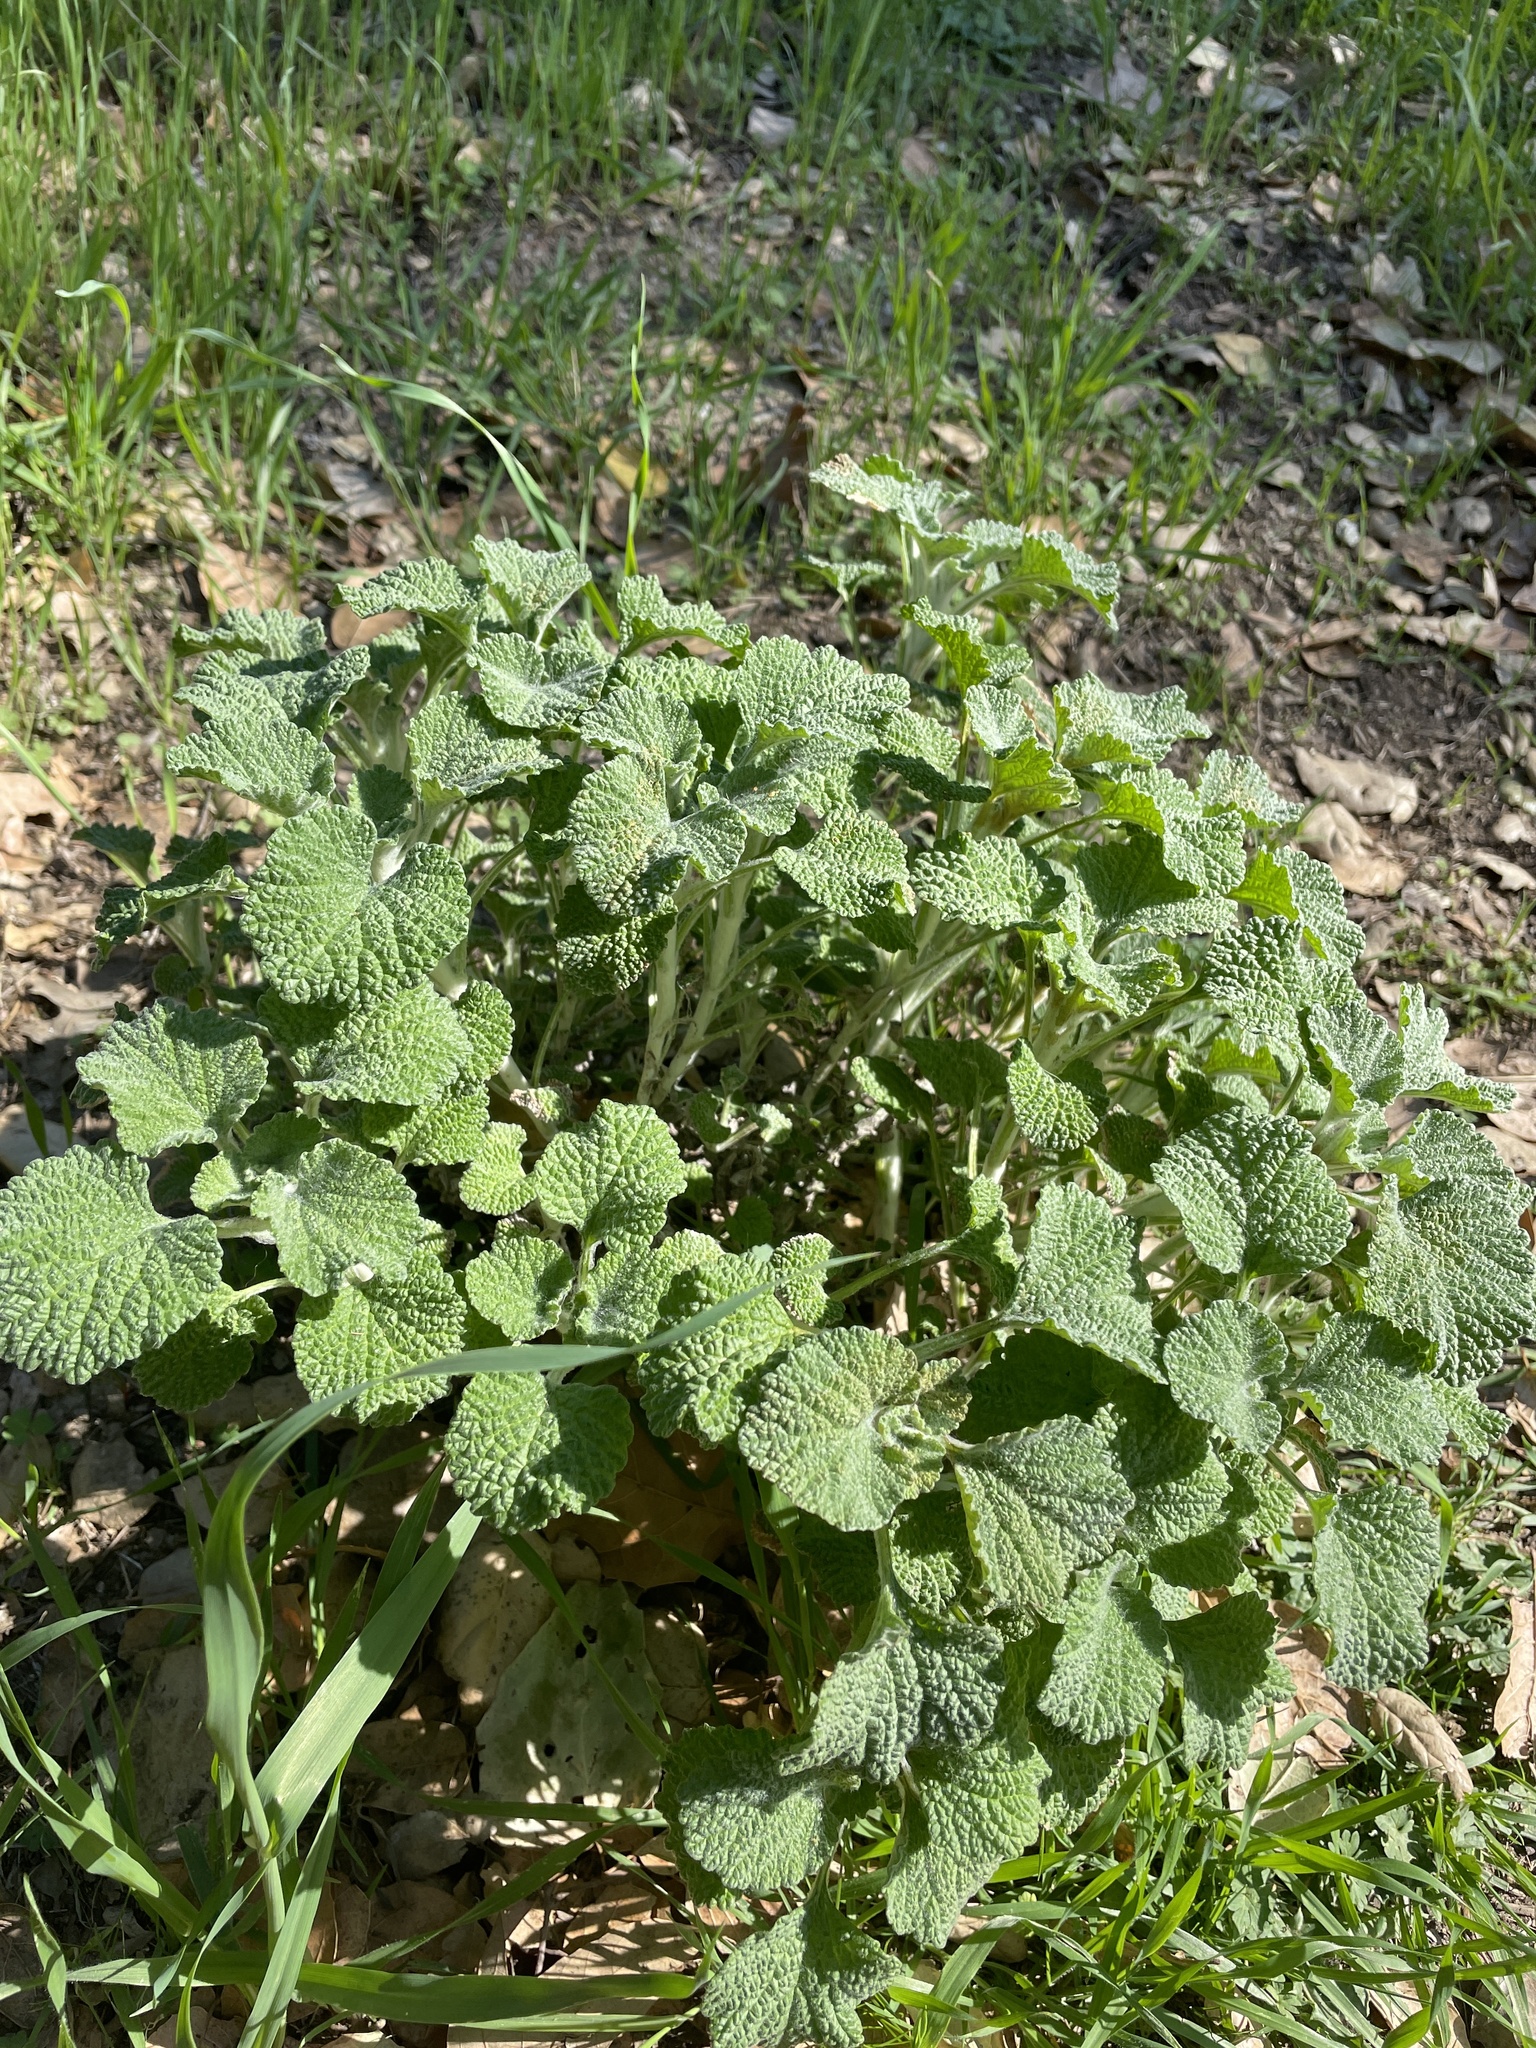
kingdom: Plantae
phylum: Tracheophyta
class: Magnoliopsida
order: Lamiales
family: Lamiaceae
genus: Marrubium
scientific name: Marrubium vulgare
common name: Horehound
